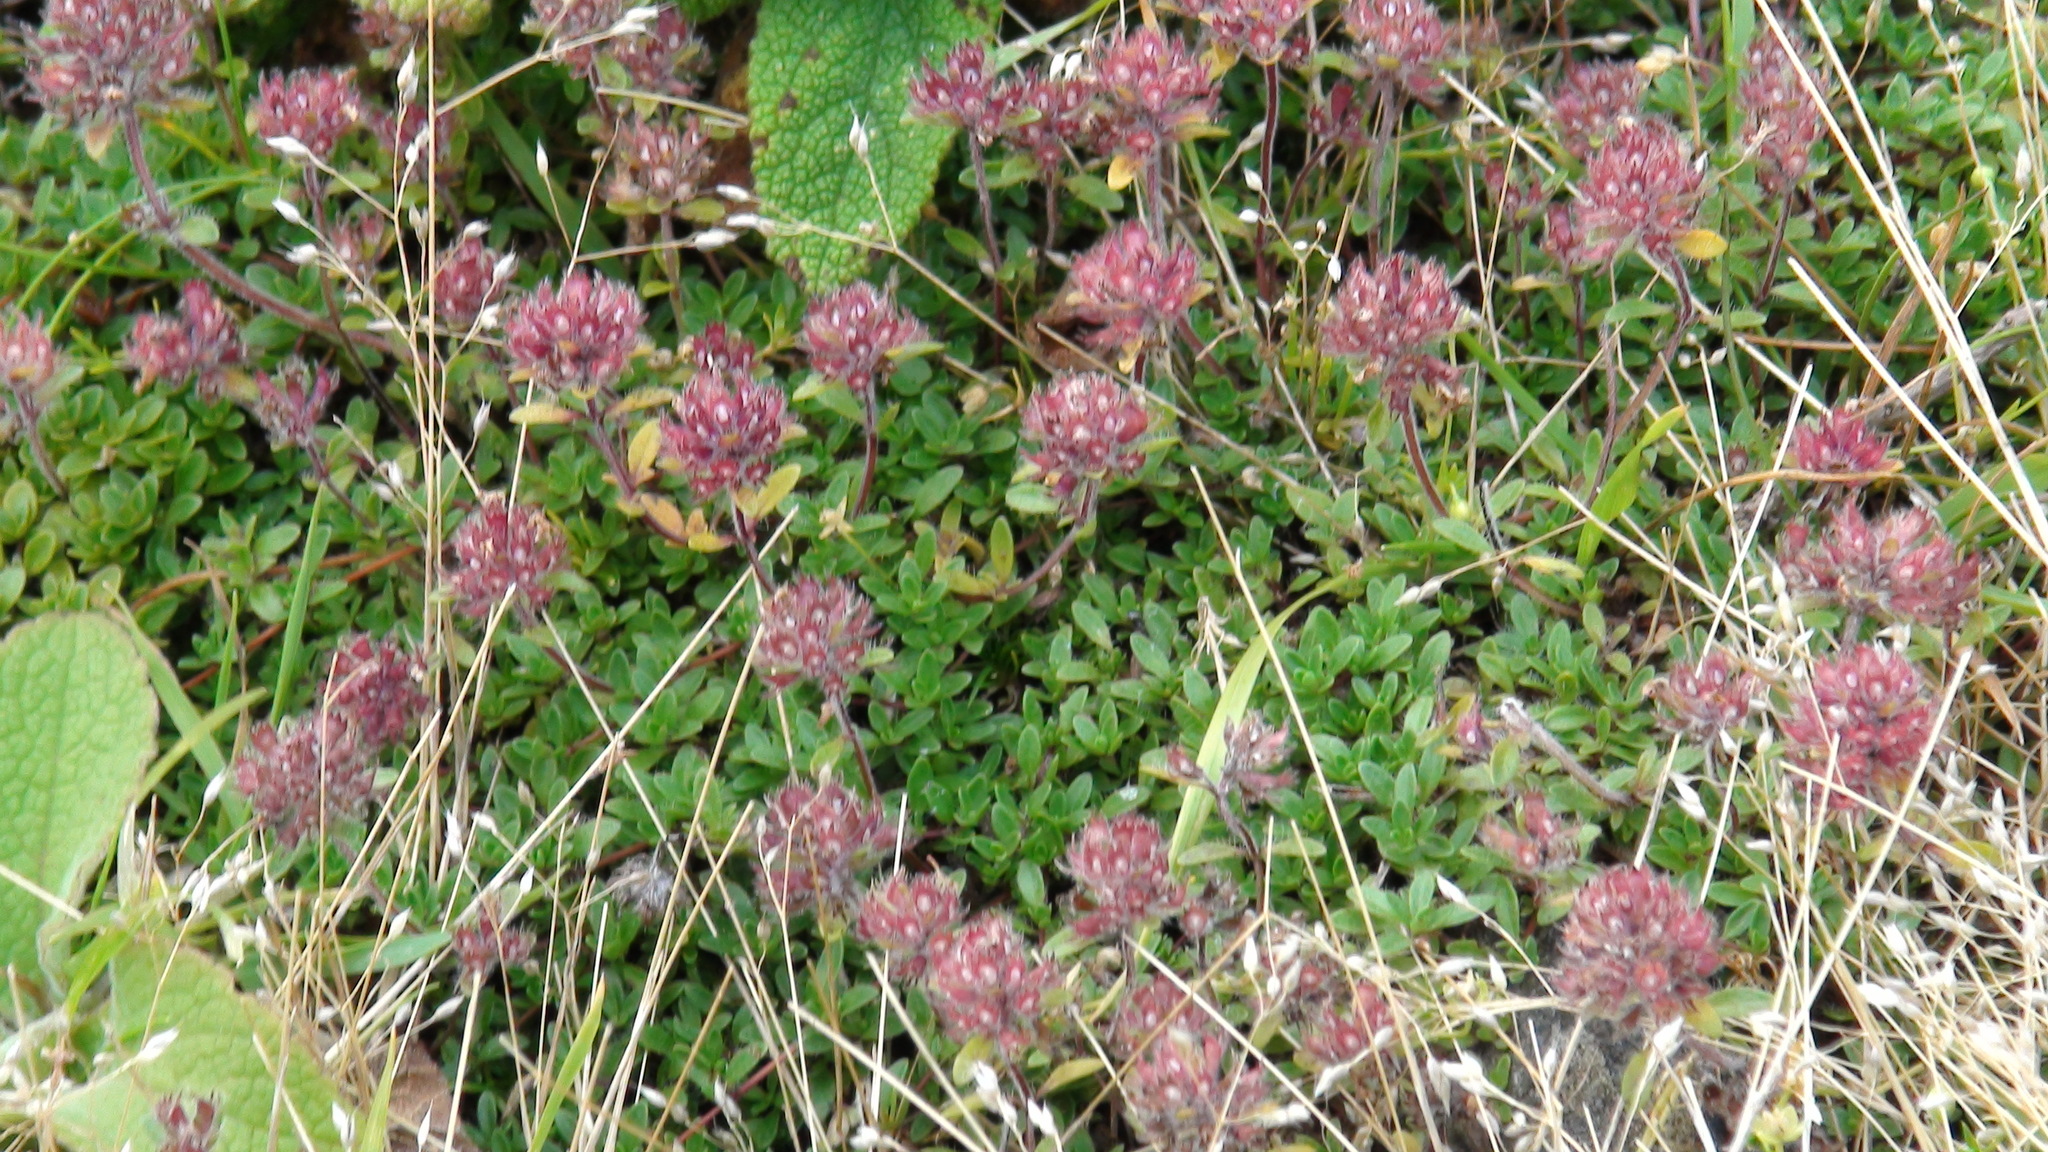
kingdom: Plantae
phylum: Tracheophyta
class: Magnoliopsida
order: Lamiales
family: Lamiaceae
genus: Thymus
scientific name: Thymus praecox
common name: Wild thyme
